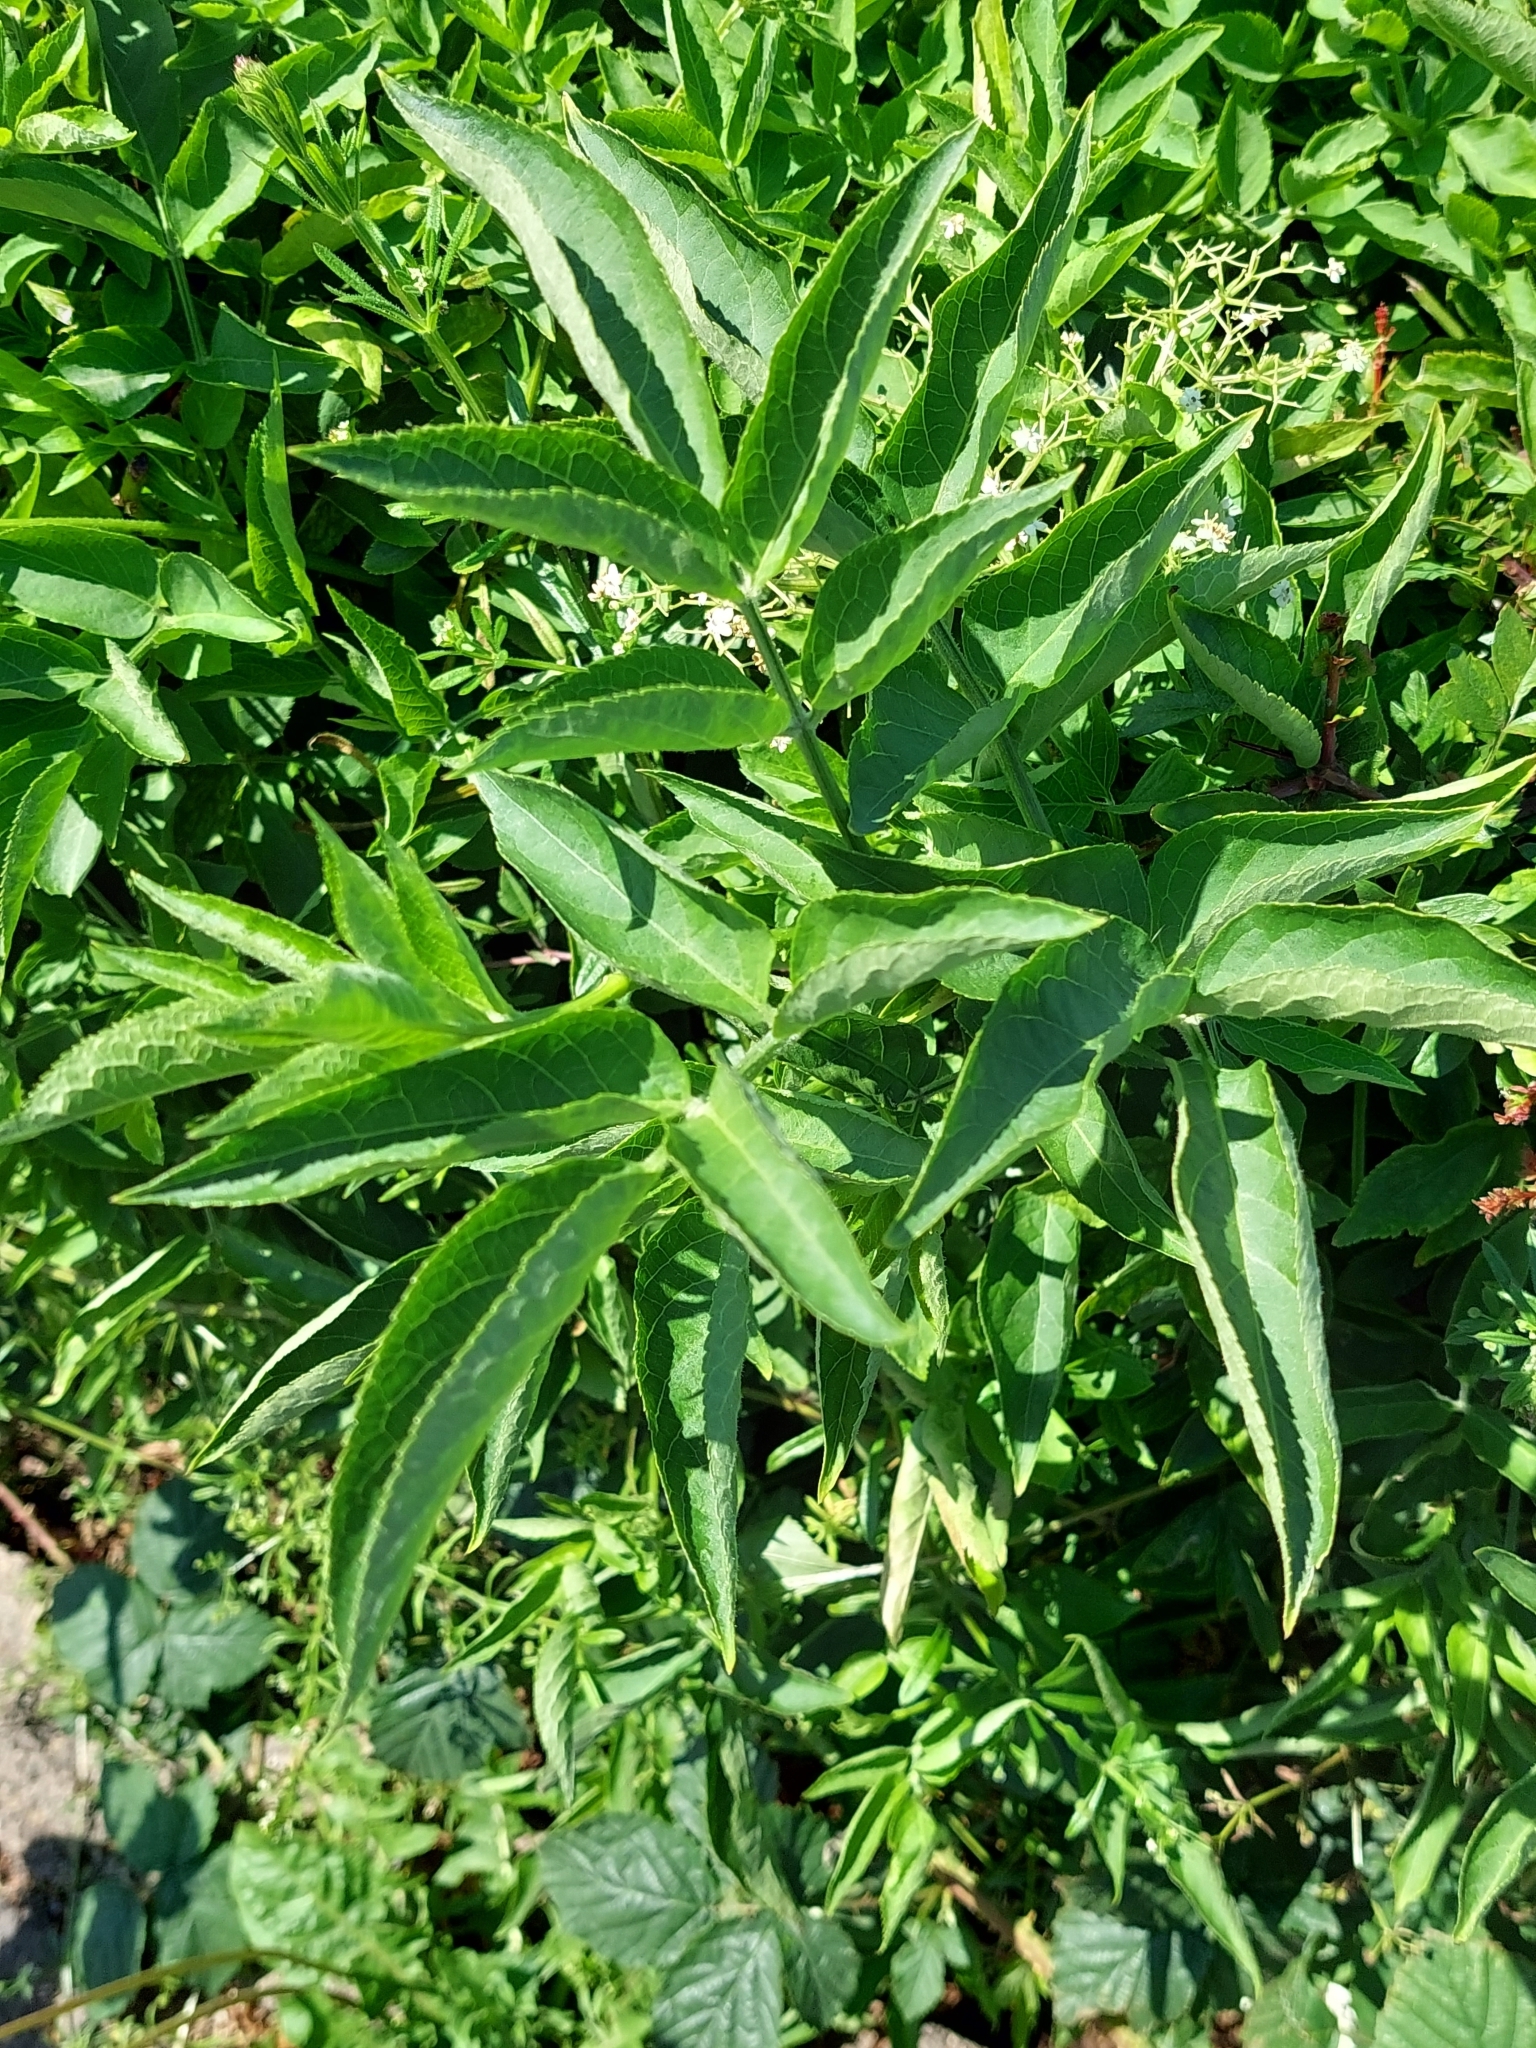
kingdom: Plantae
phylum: Tracheophyta
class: Magnoliopsida
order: Dipsacales
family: Viburnaceae
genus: Sambucus
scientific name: Sambucus nigra
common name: Elder
